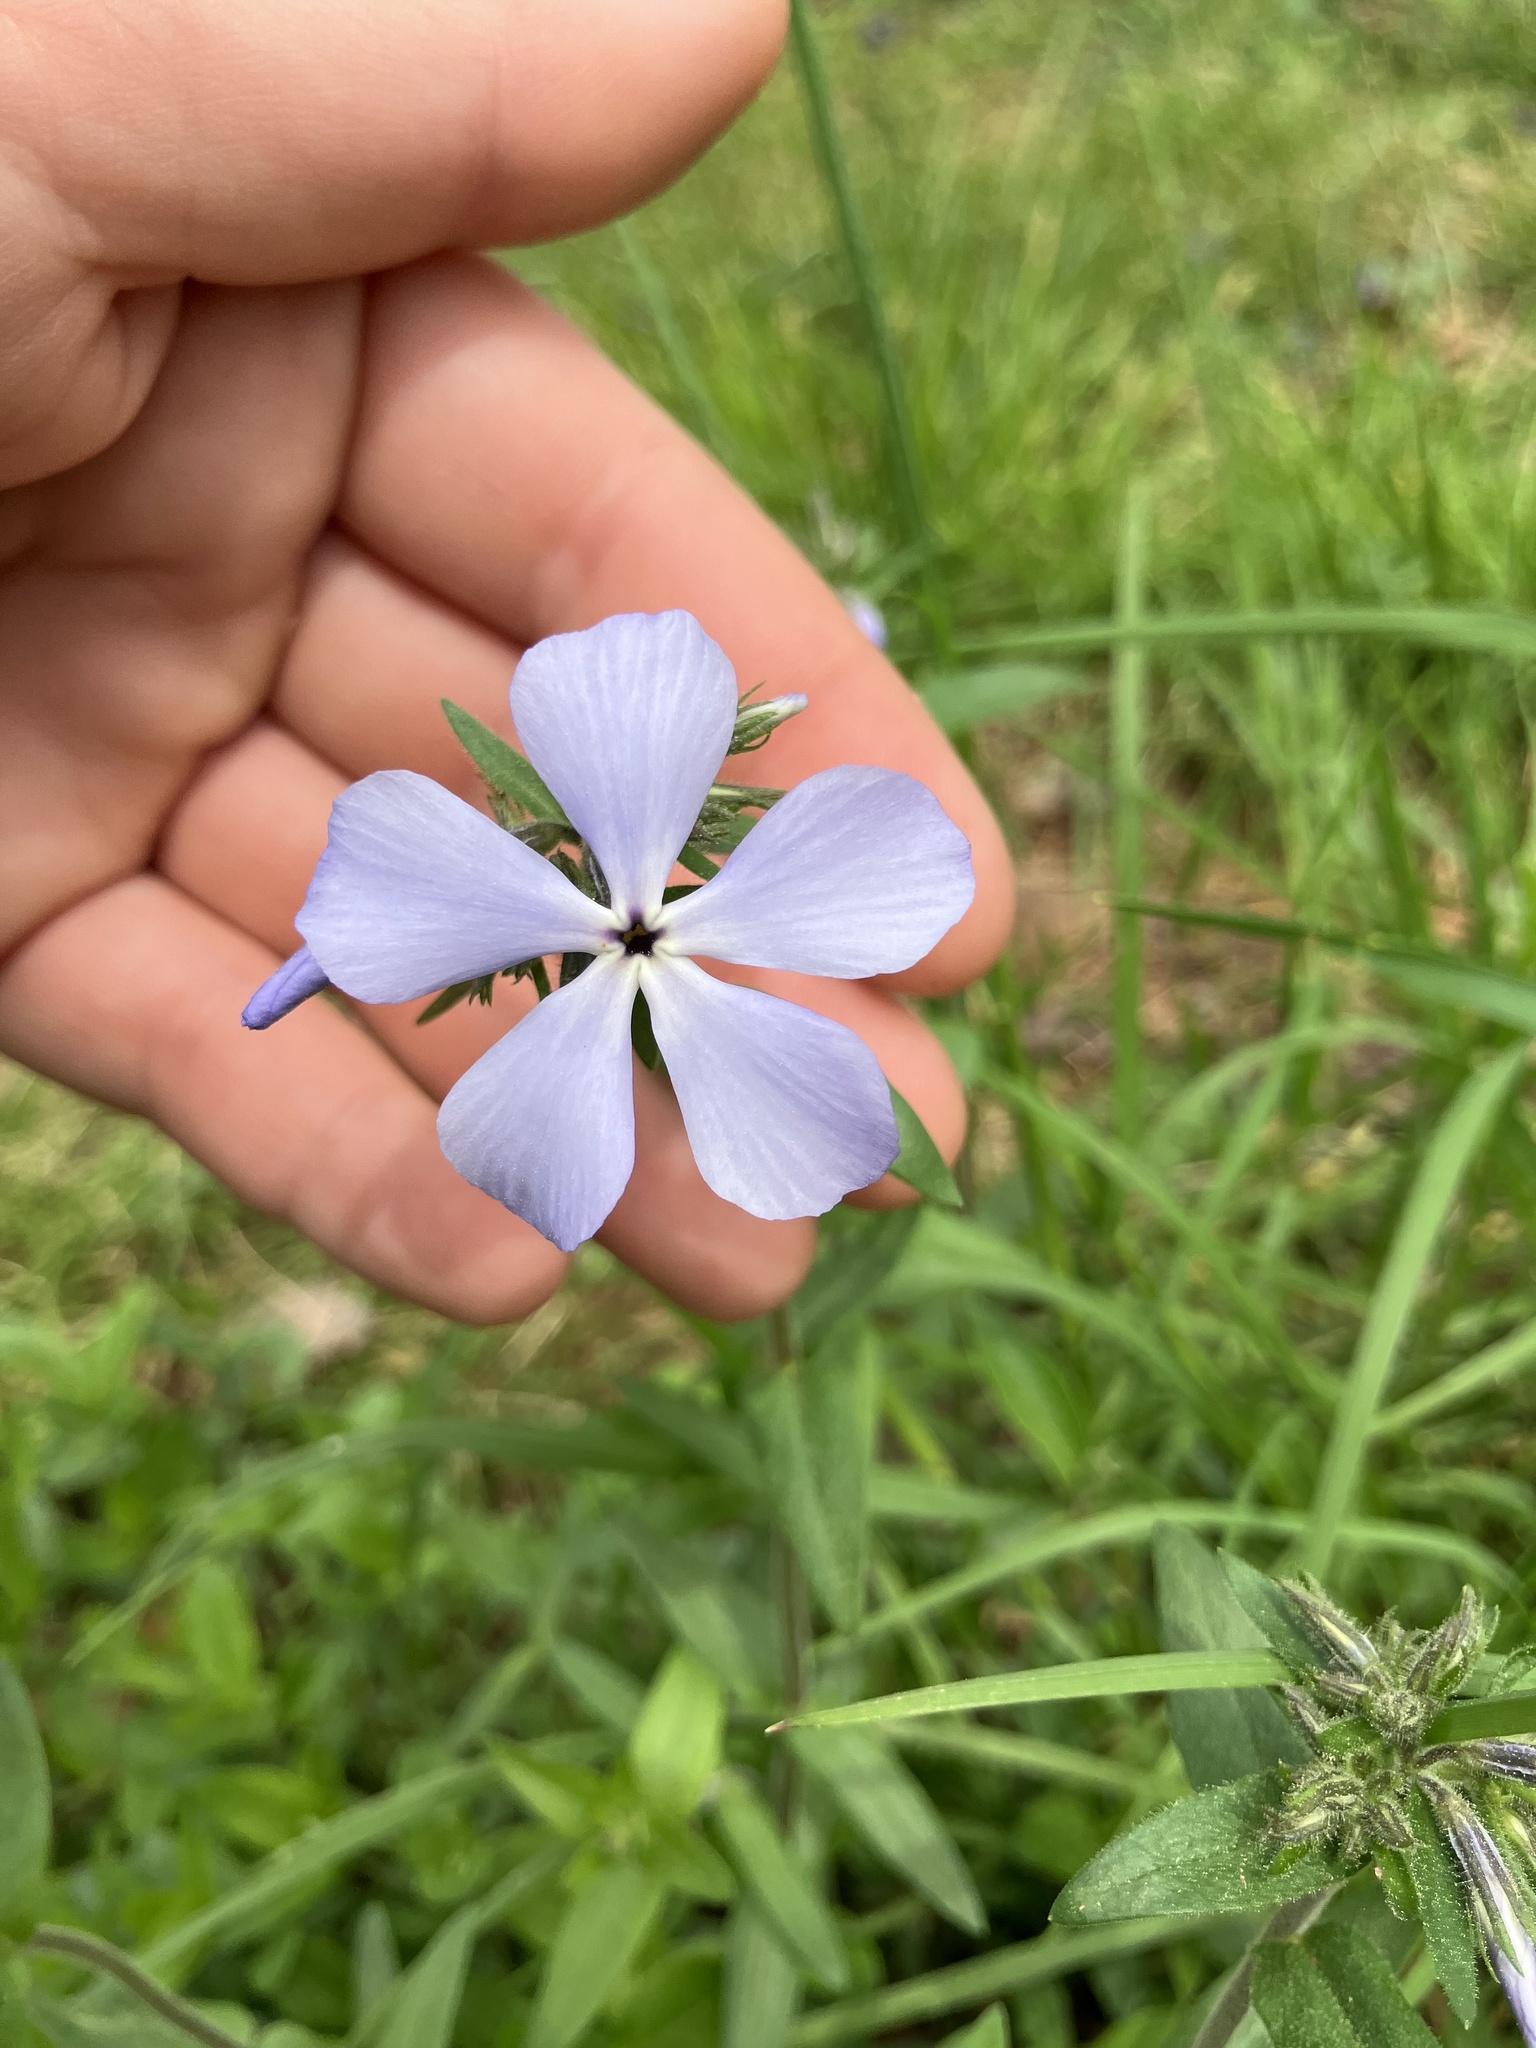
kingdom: Plantae
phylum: Tracheophyta
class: Magnoliopsida
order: Ericales
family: Polemoniaceae
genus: Phlox
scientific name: Phlox divaricata
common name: Blue phlox
